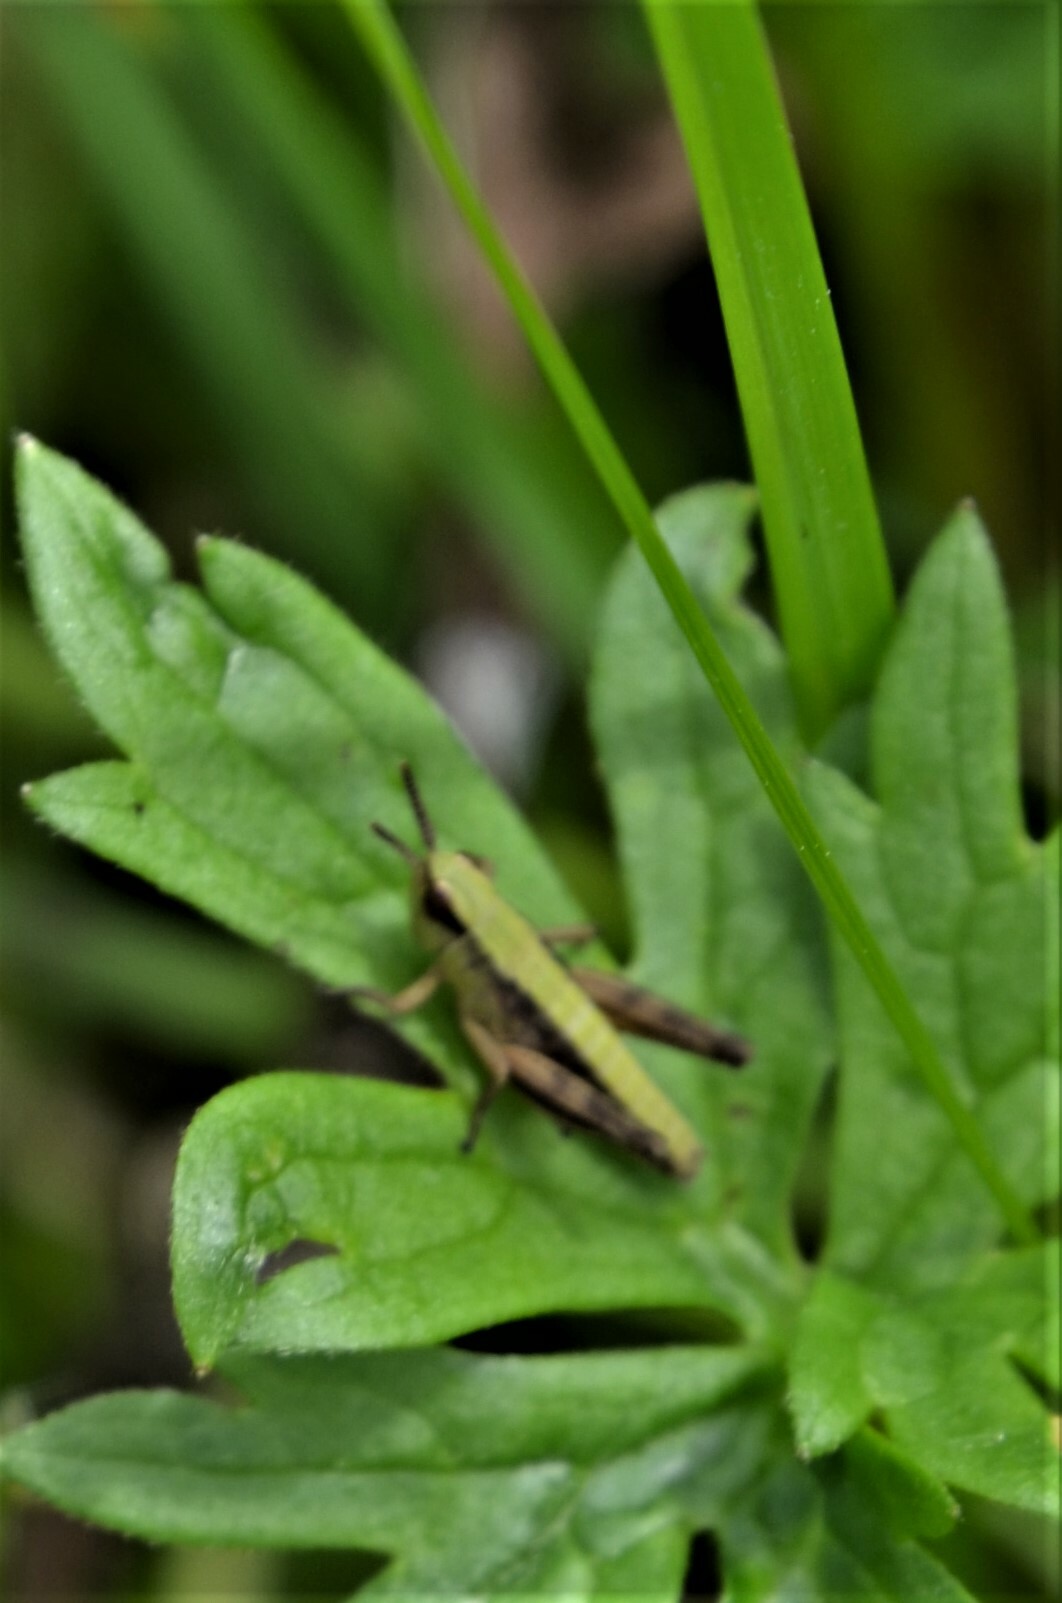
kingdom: Animalia
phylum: Arthropoda
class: Insecta
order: Orthoptera
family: Acrididae
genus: Pseudochorthippus
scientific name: Pseudochorthippus parallelus
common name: Meadow grasshopper
